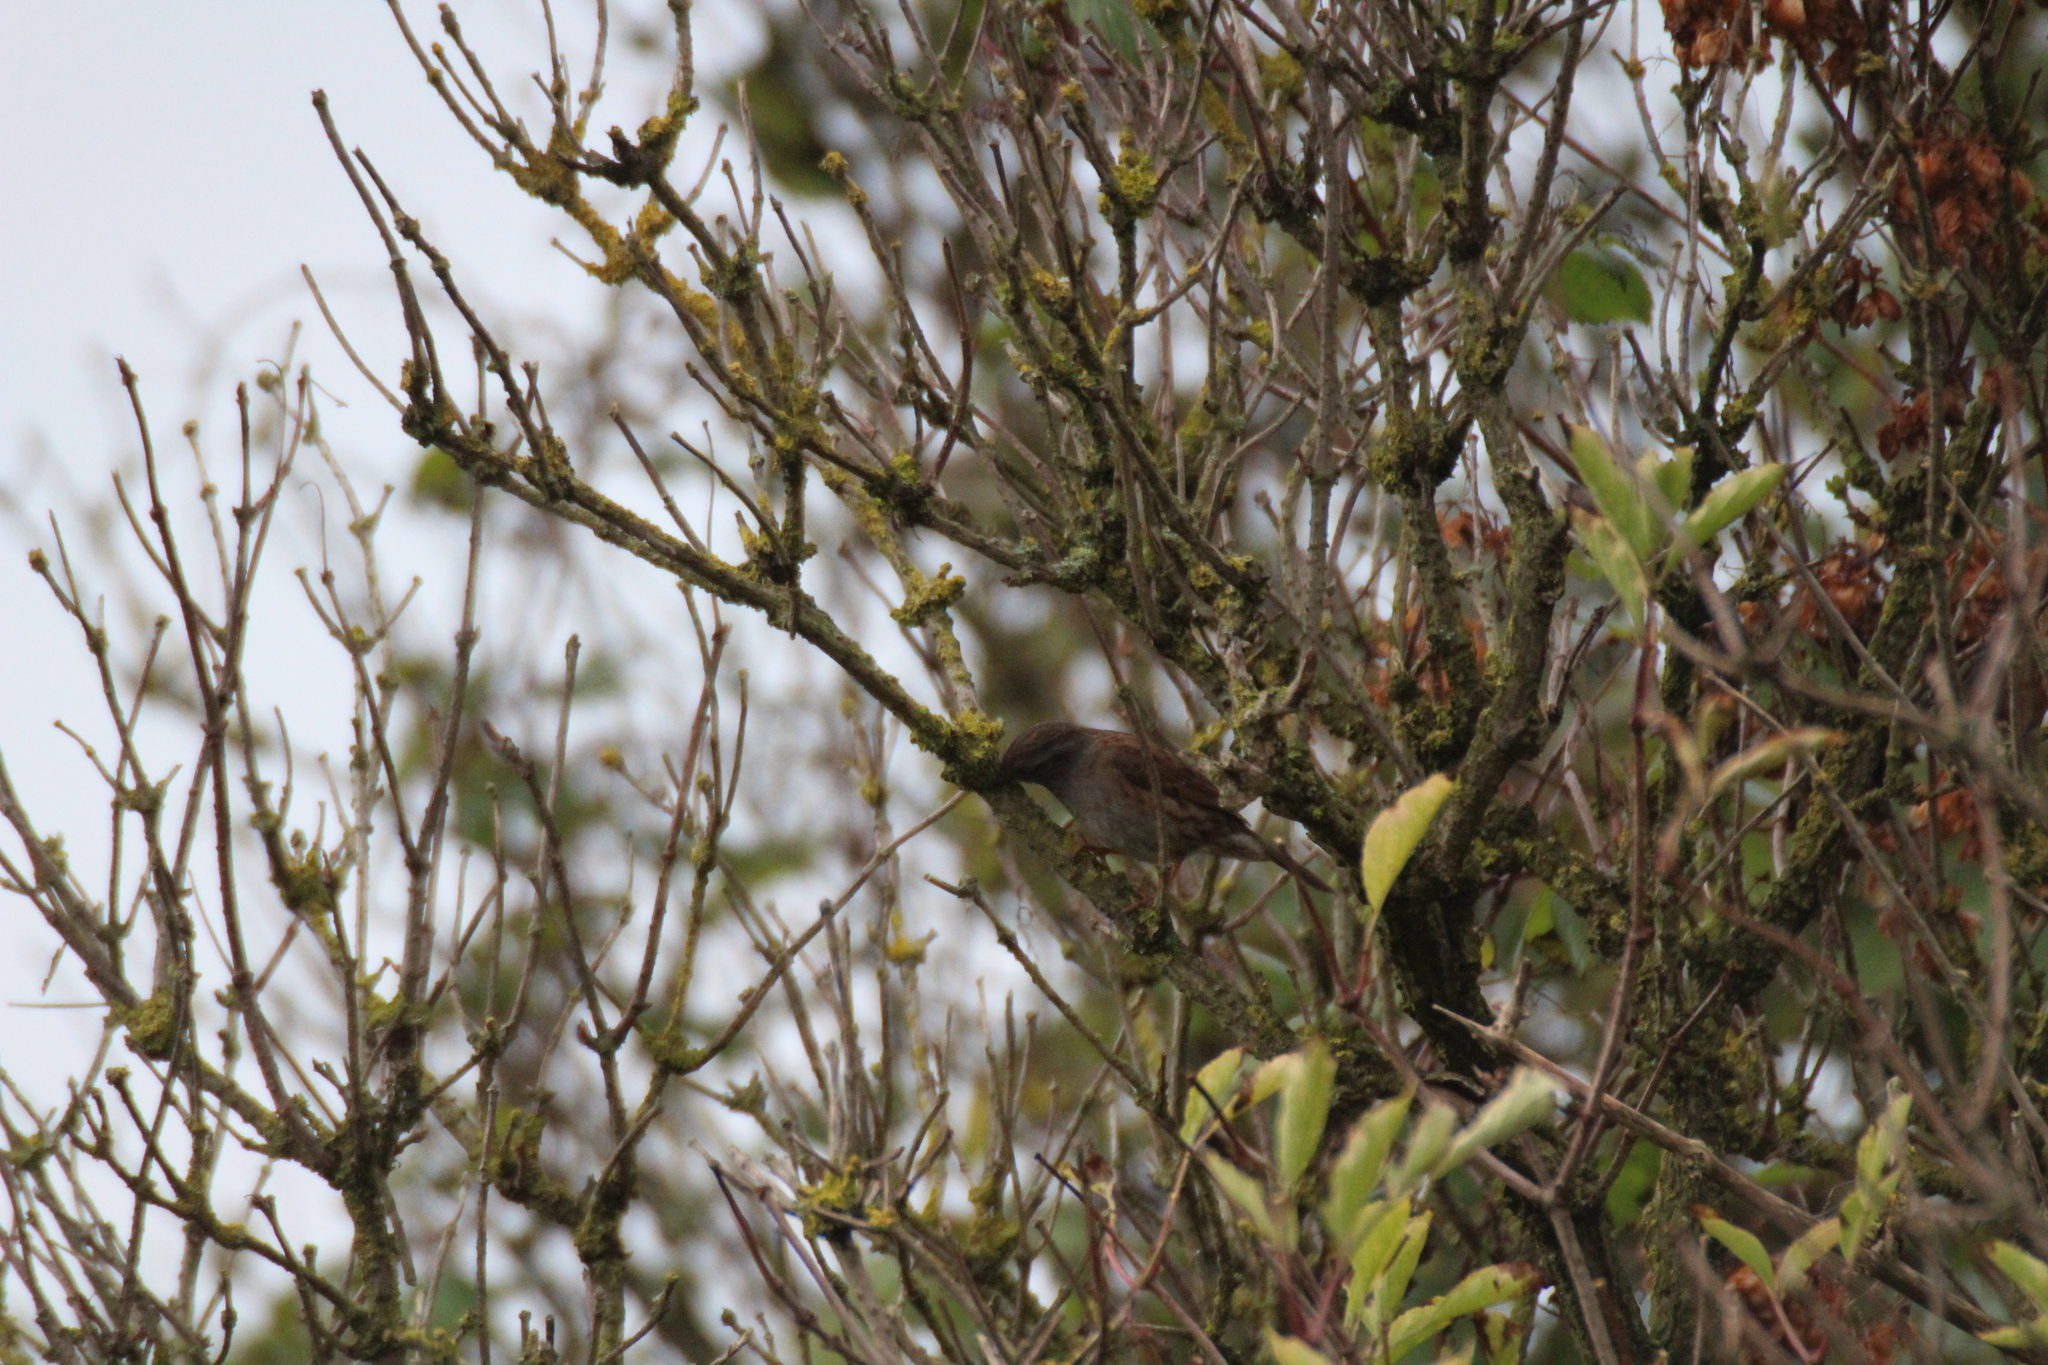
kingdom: Animalia
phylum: Chordata
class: Aves
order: Passeriformes
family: Prunellidae
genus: Prunella
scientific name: Prunella modularis
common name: Dunnock
